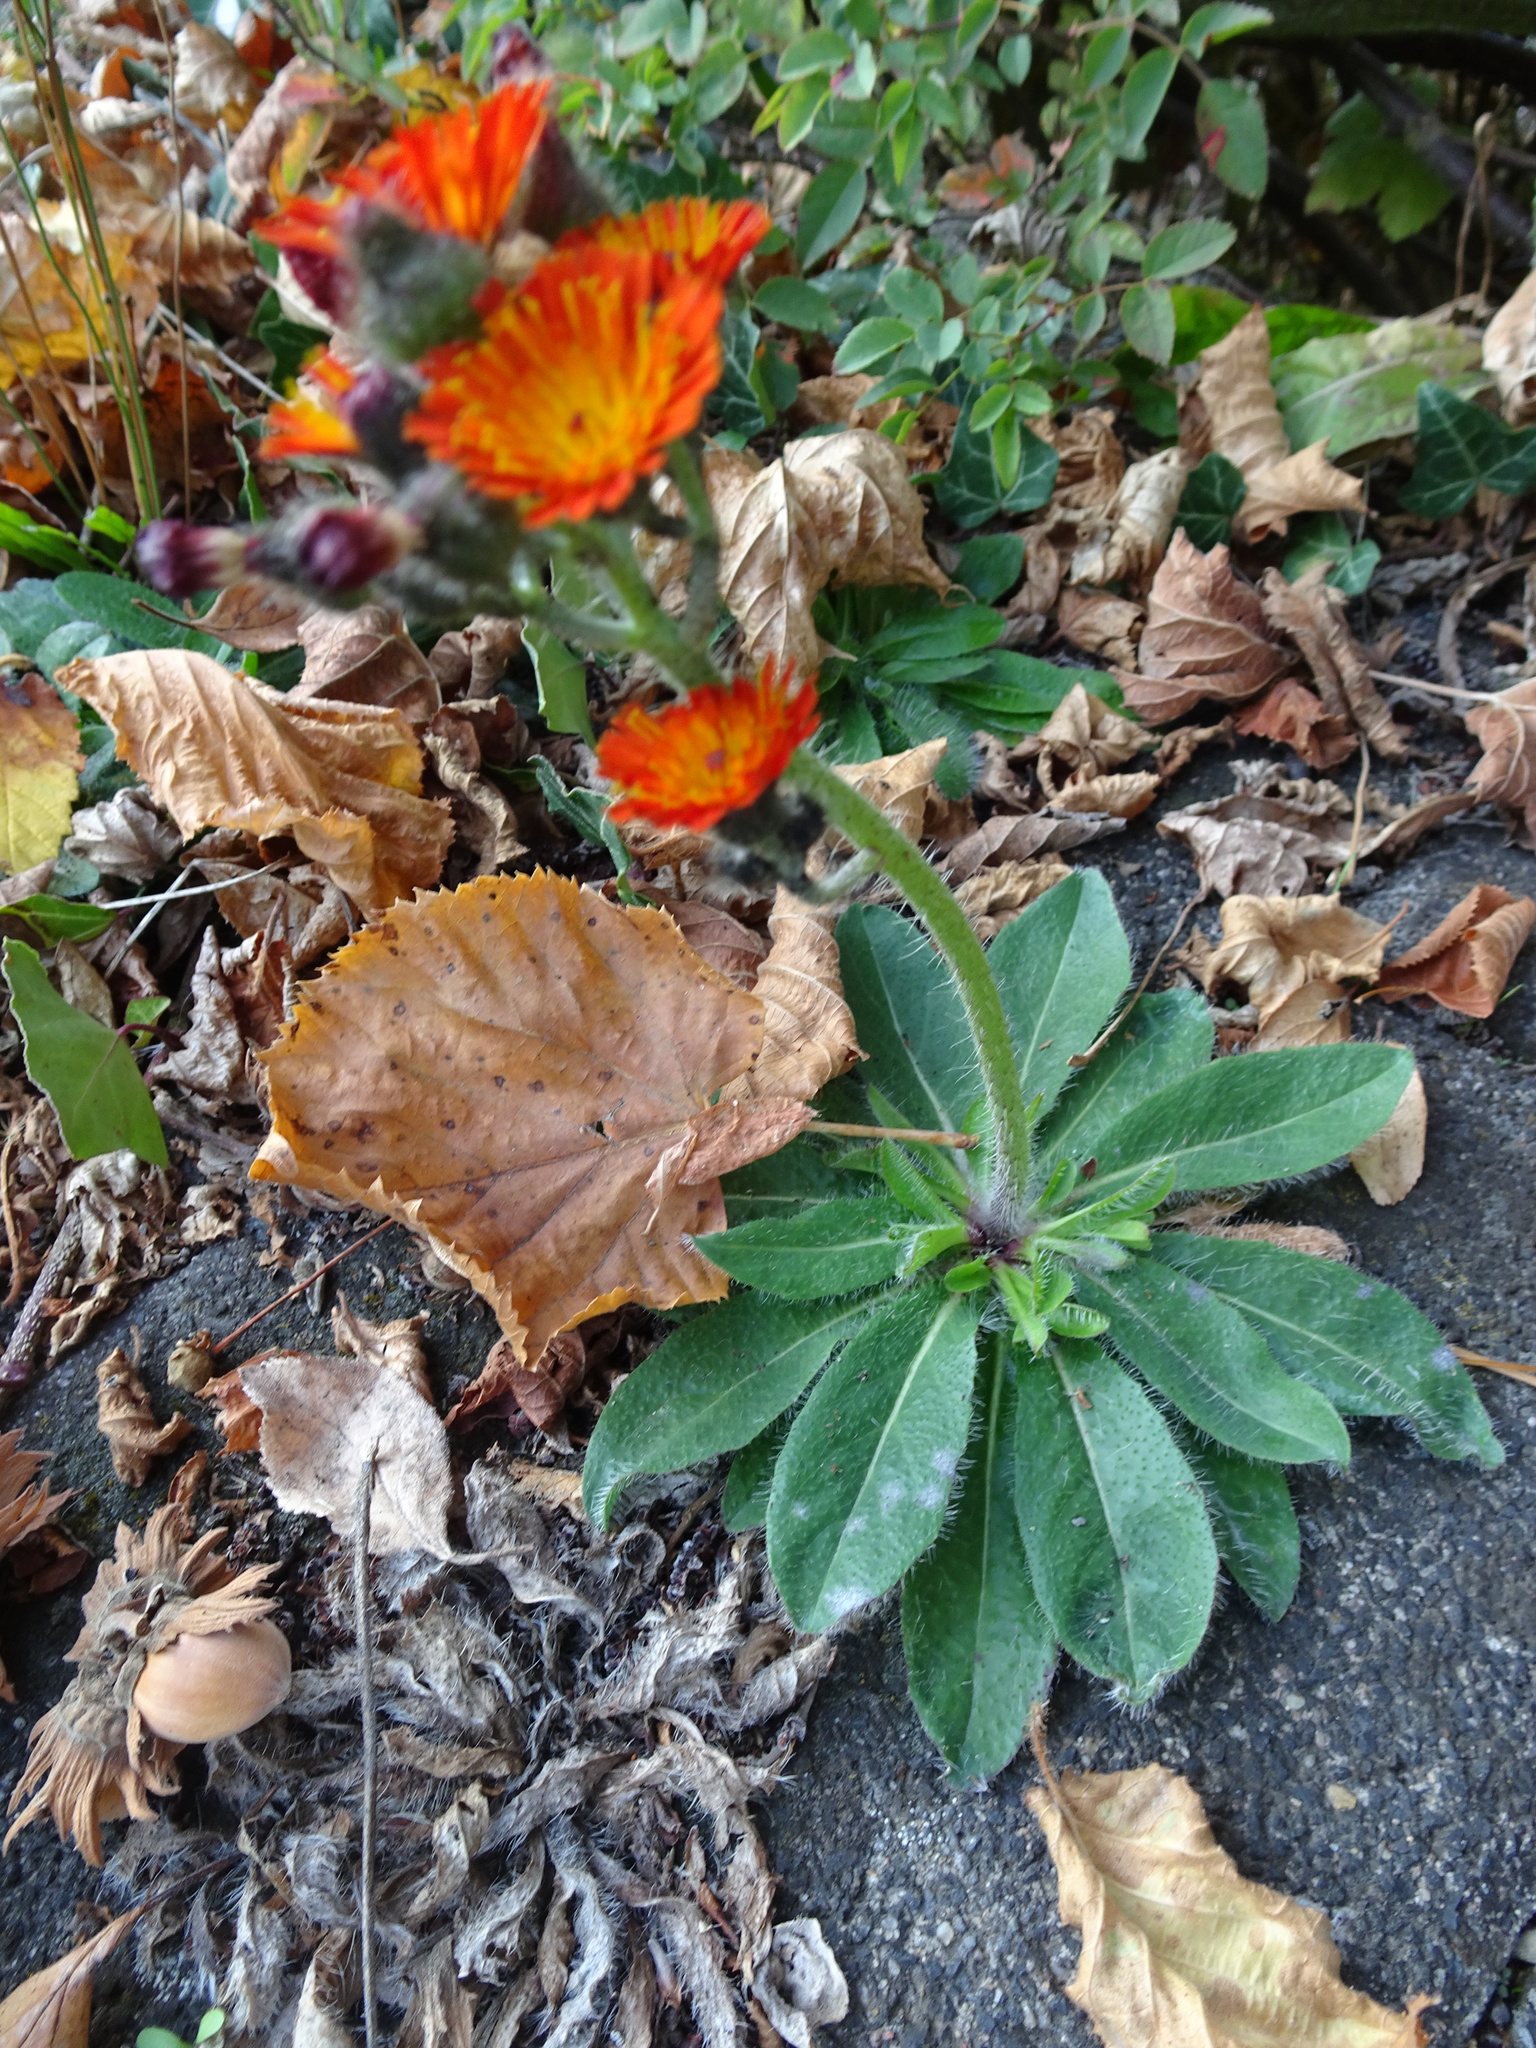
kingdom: Plantae
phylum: Tracheophyta
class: Magnoliopsida
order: Asterales
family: Asteraceae
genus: Pilosella
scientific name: Pilosella aurantiaca
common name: Fox-and-cubs
